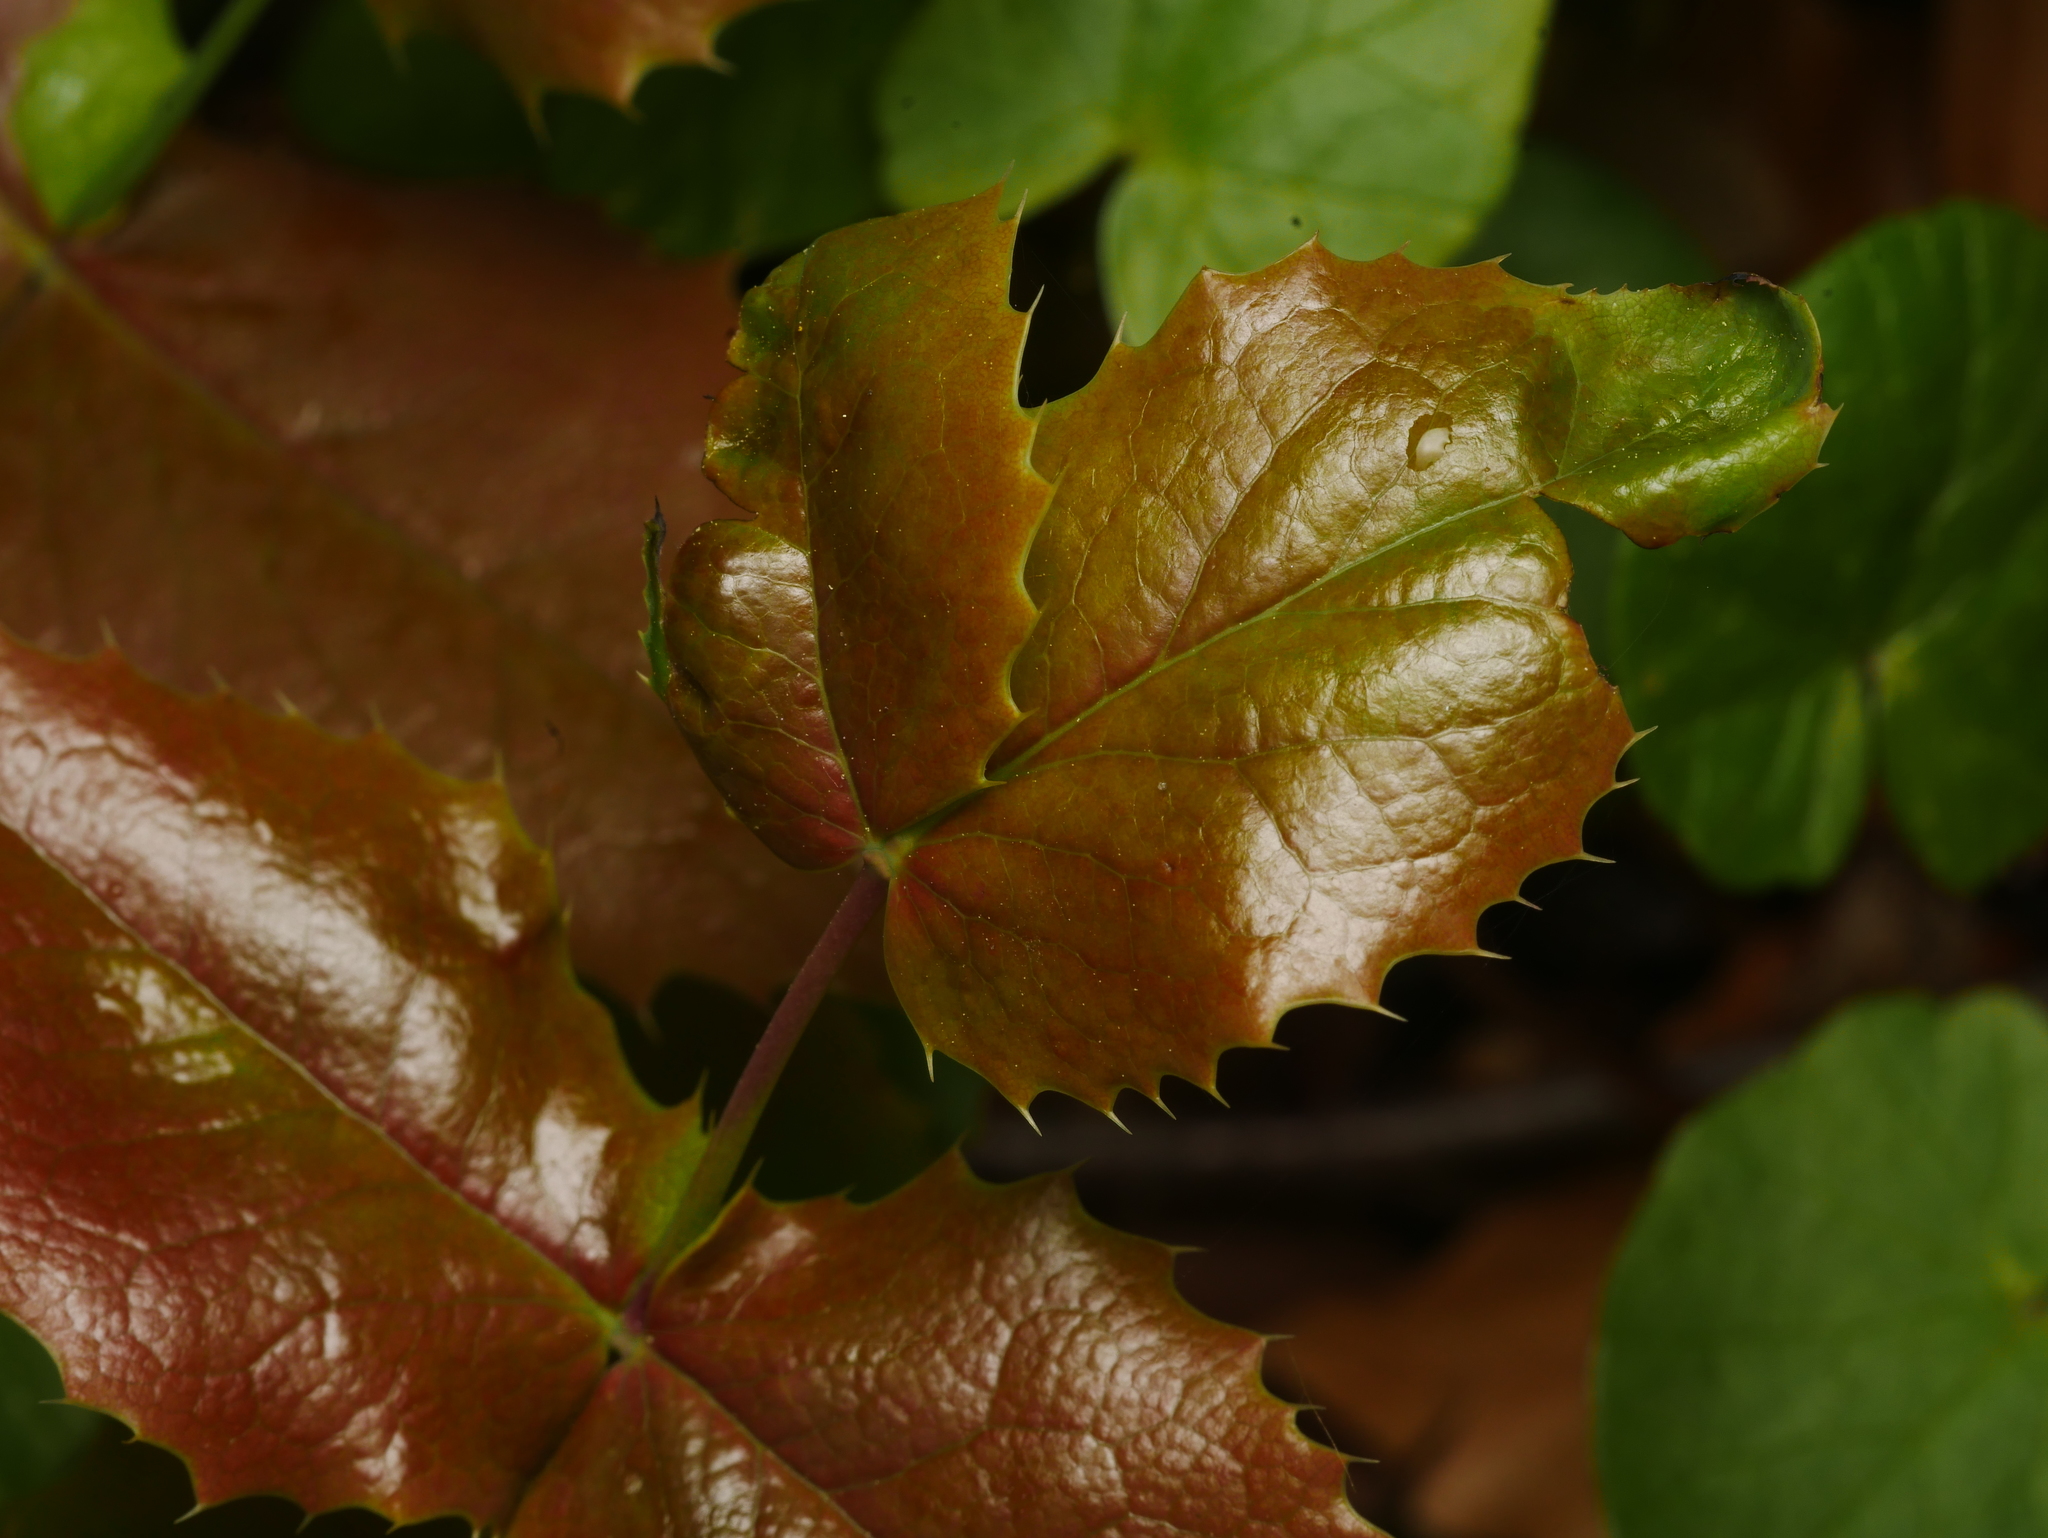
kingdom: Plantae
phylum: Tracheophyta
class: Magnoliopsida
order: Ranunculales
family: Berberidaceae
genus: Mahonia
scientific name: Mahonia aquifolium
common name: Oregon-grape
